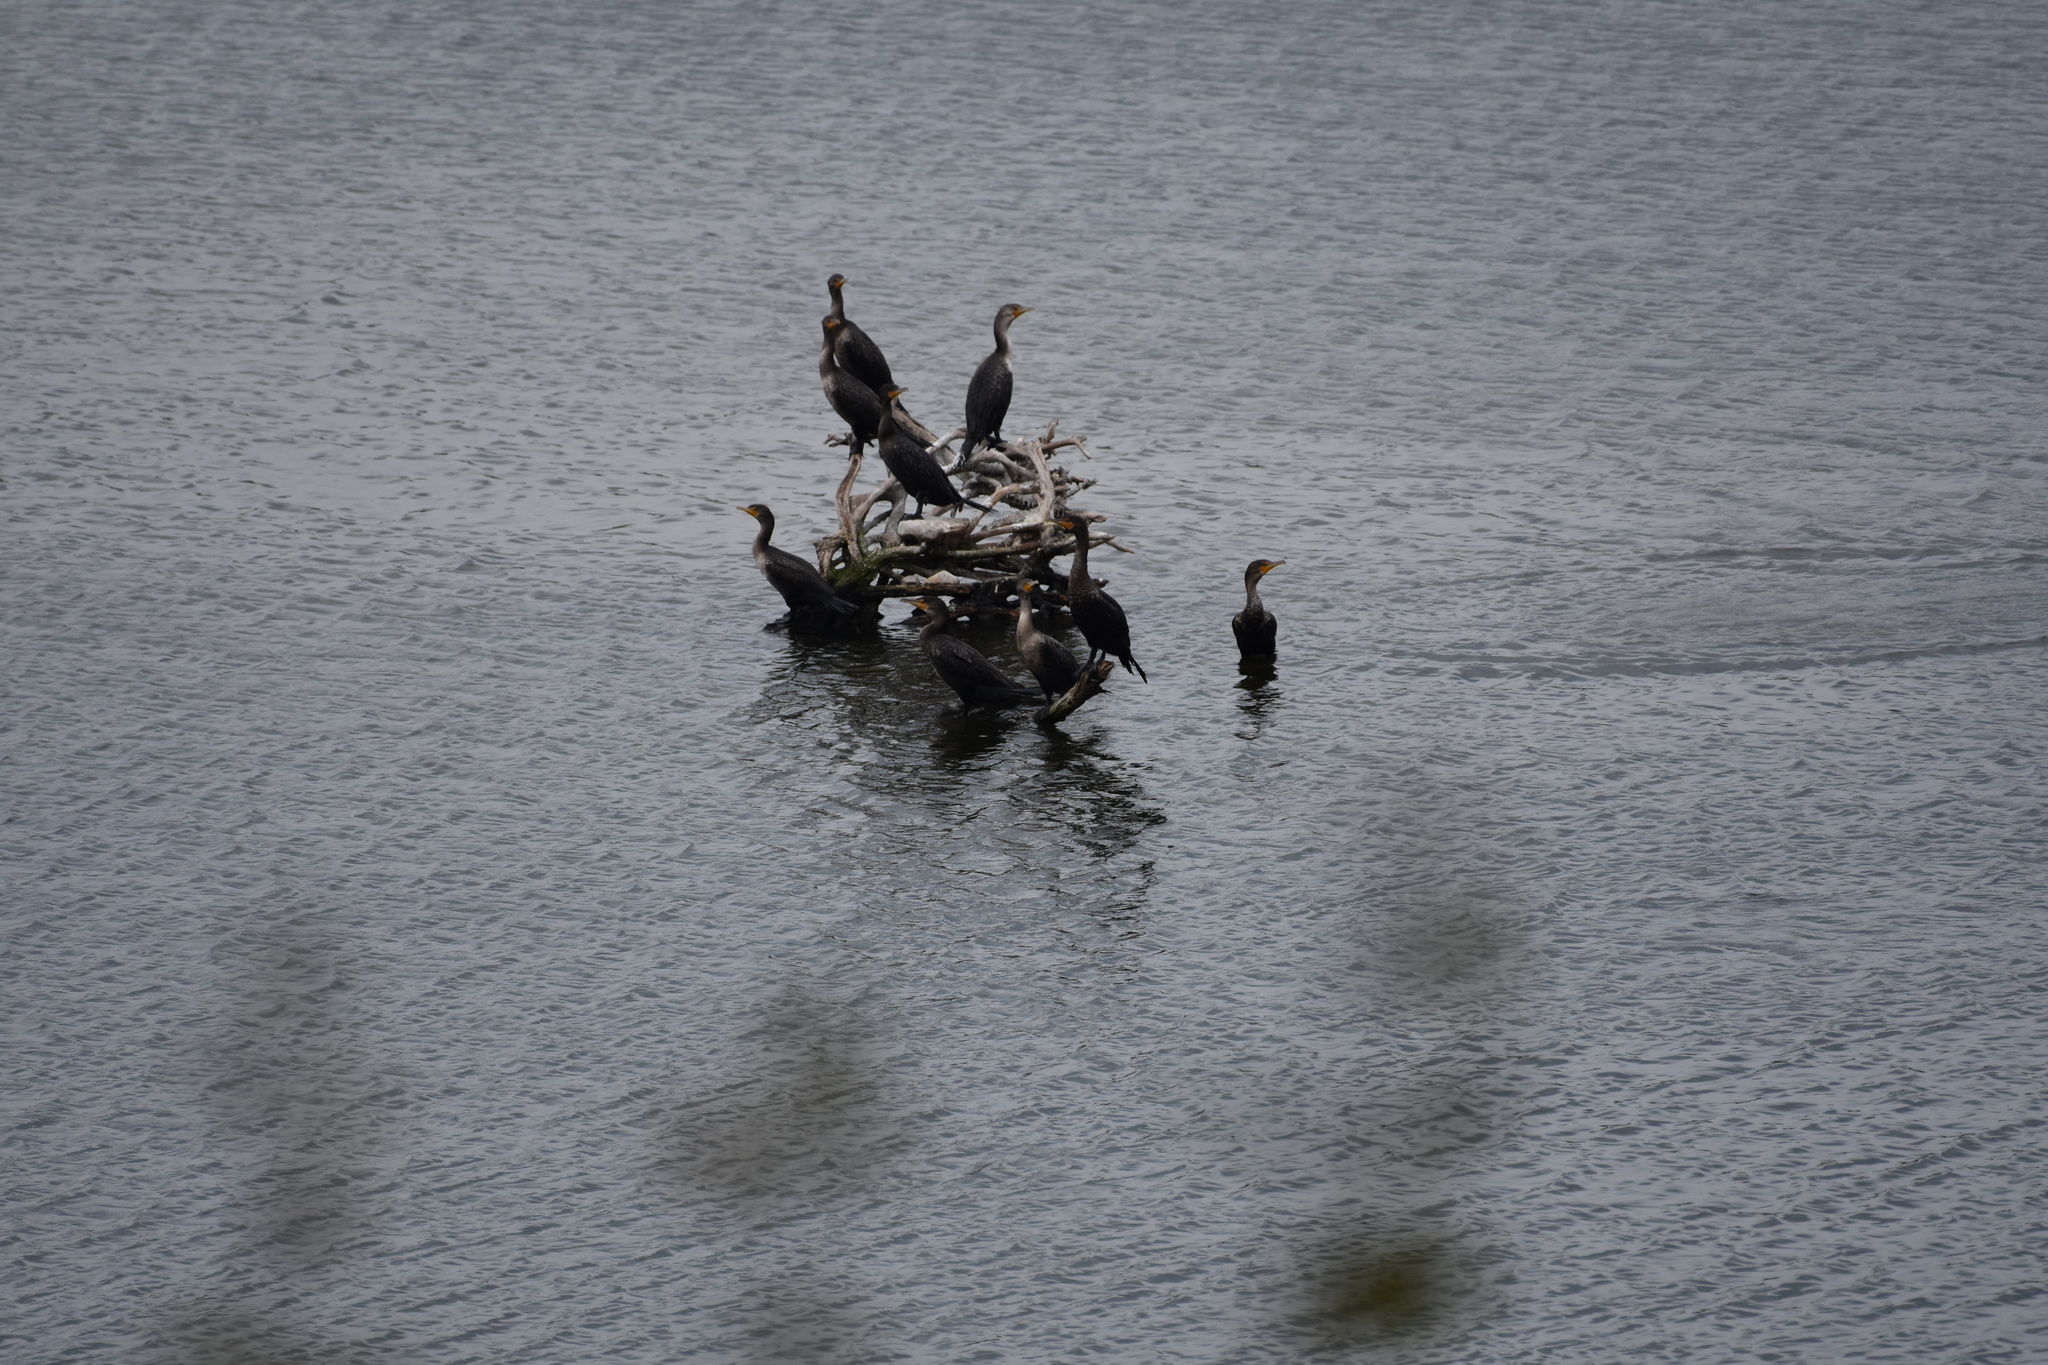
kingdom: Animalia
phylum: Chordata
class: Aves
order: Suliformes
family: Phalacrocoracidae
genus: Phalacrocorax
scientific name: Phalacrocorax auritus
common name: Double-crested cormorant
